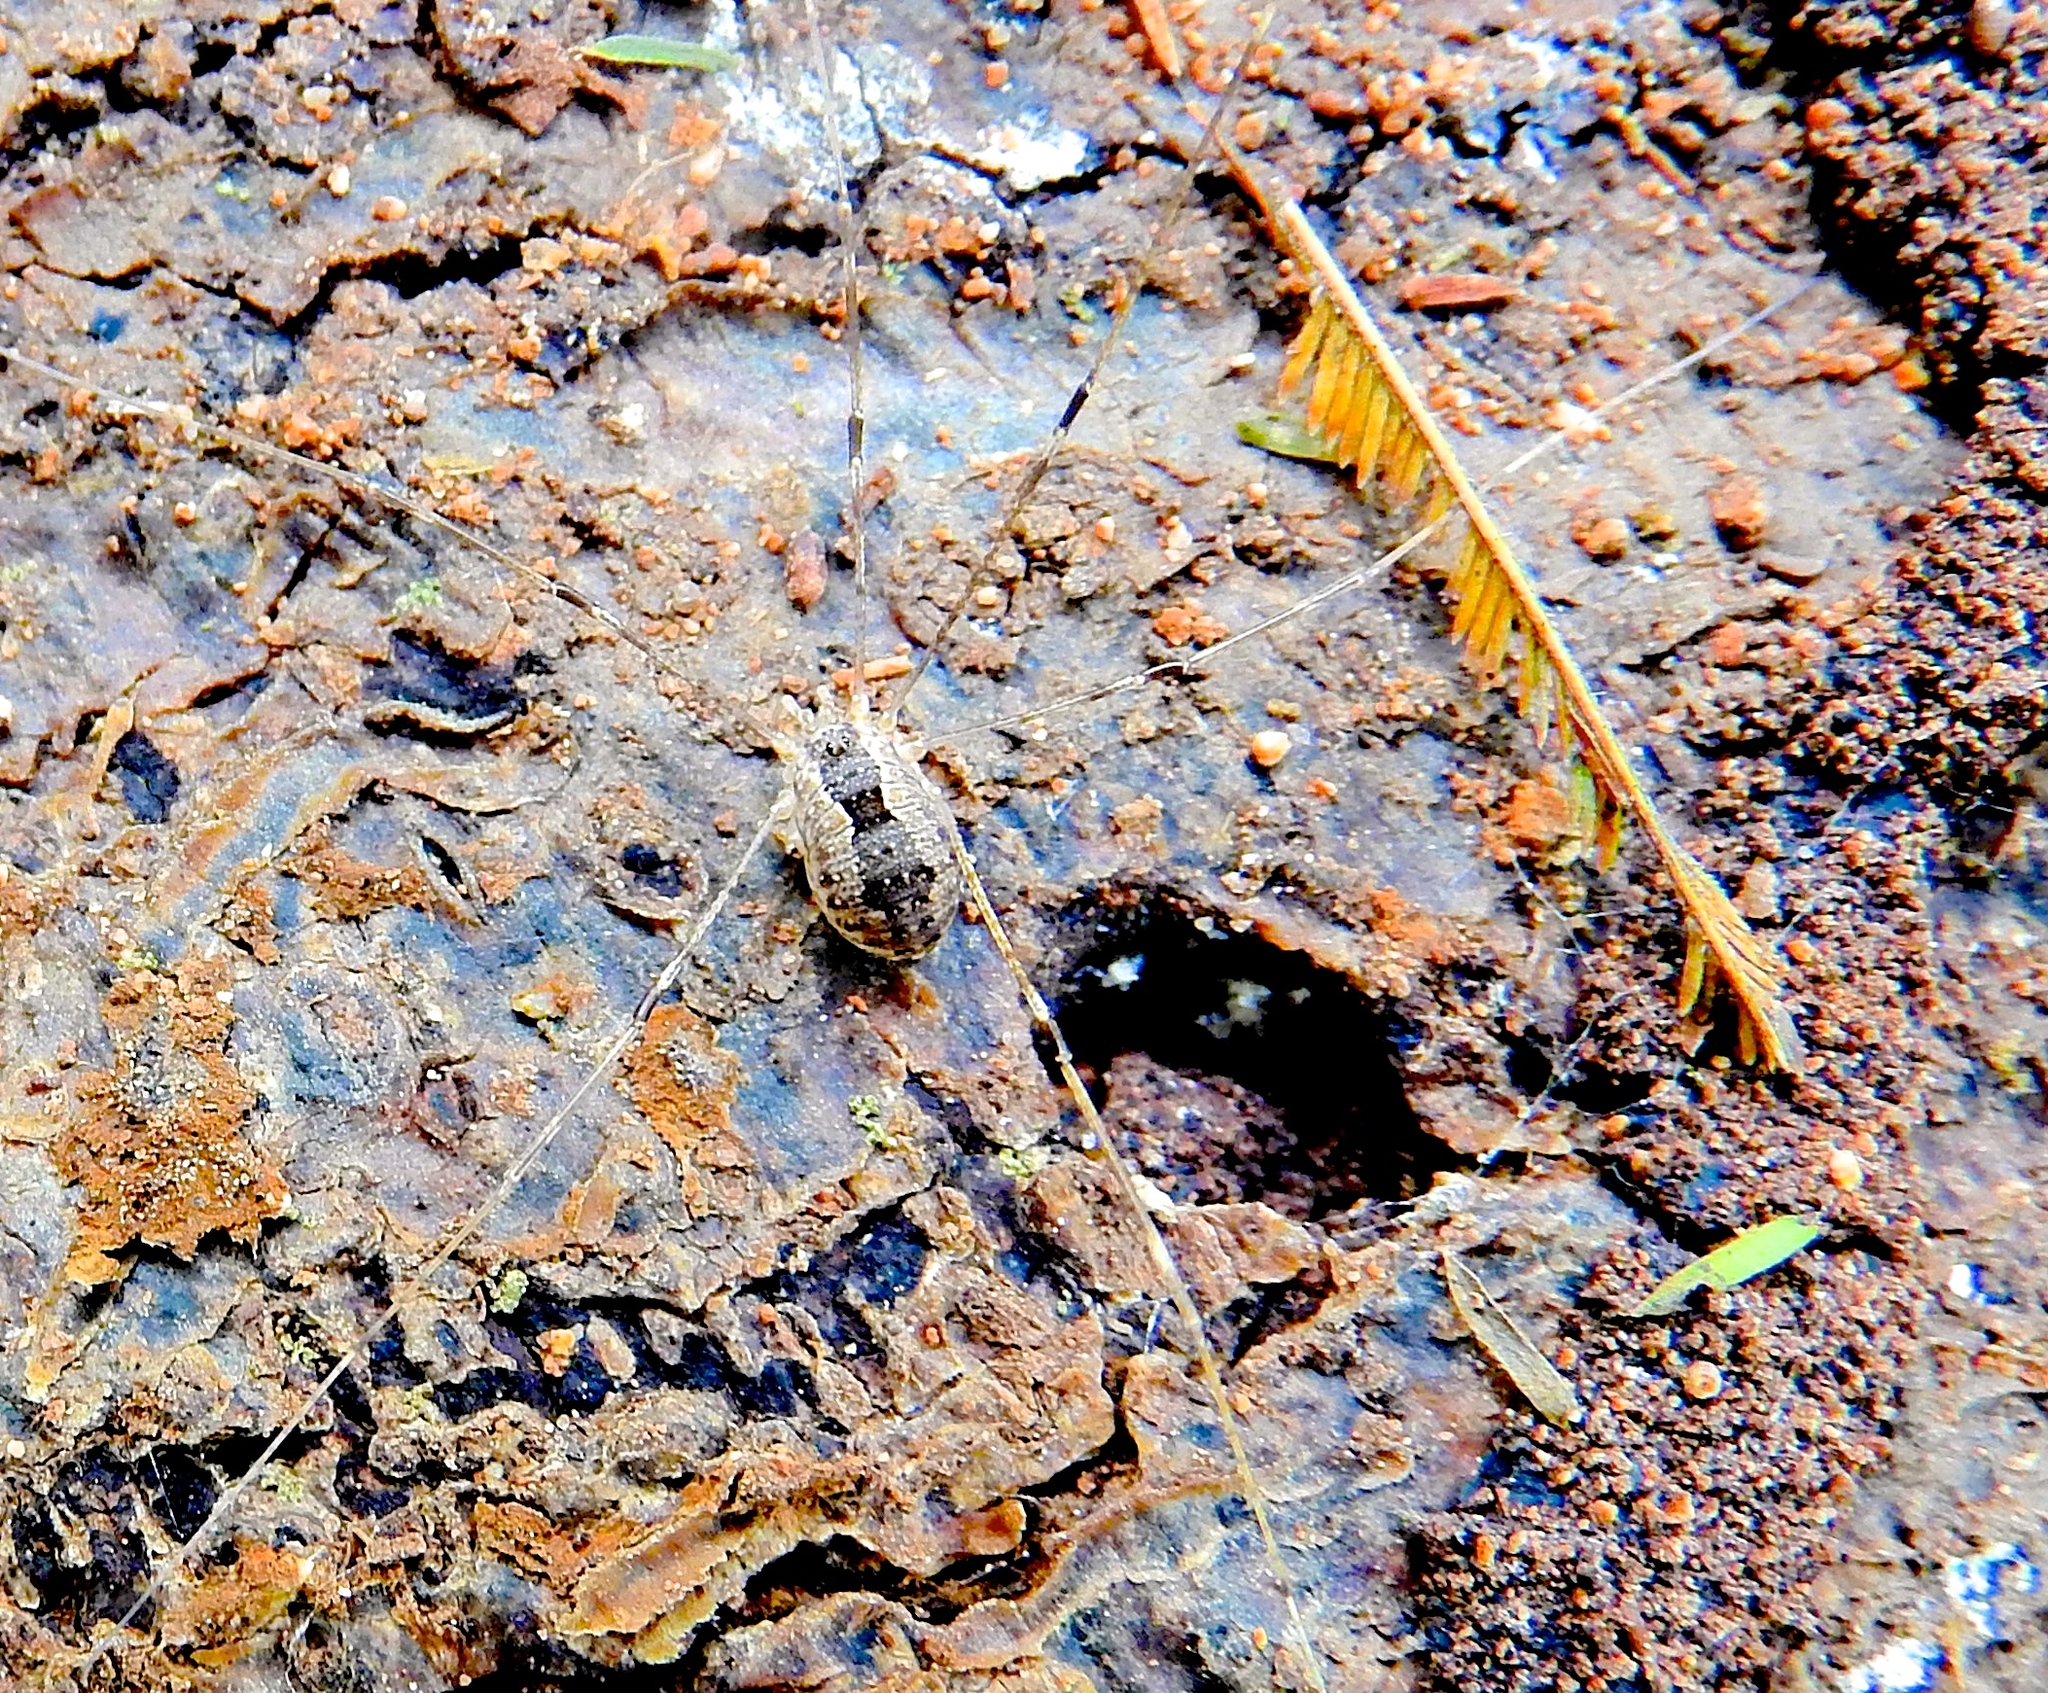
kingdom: Animalia
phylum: Arthropoda
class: Arachnida
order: Opiliones
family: Sclerosomatidae
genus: Paranelima
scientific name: Paranelima
